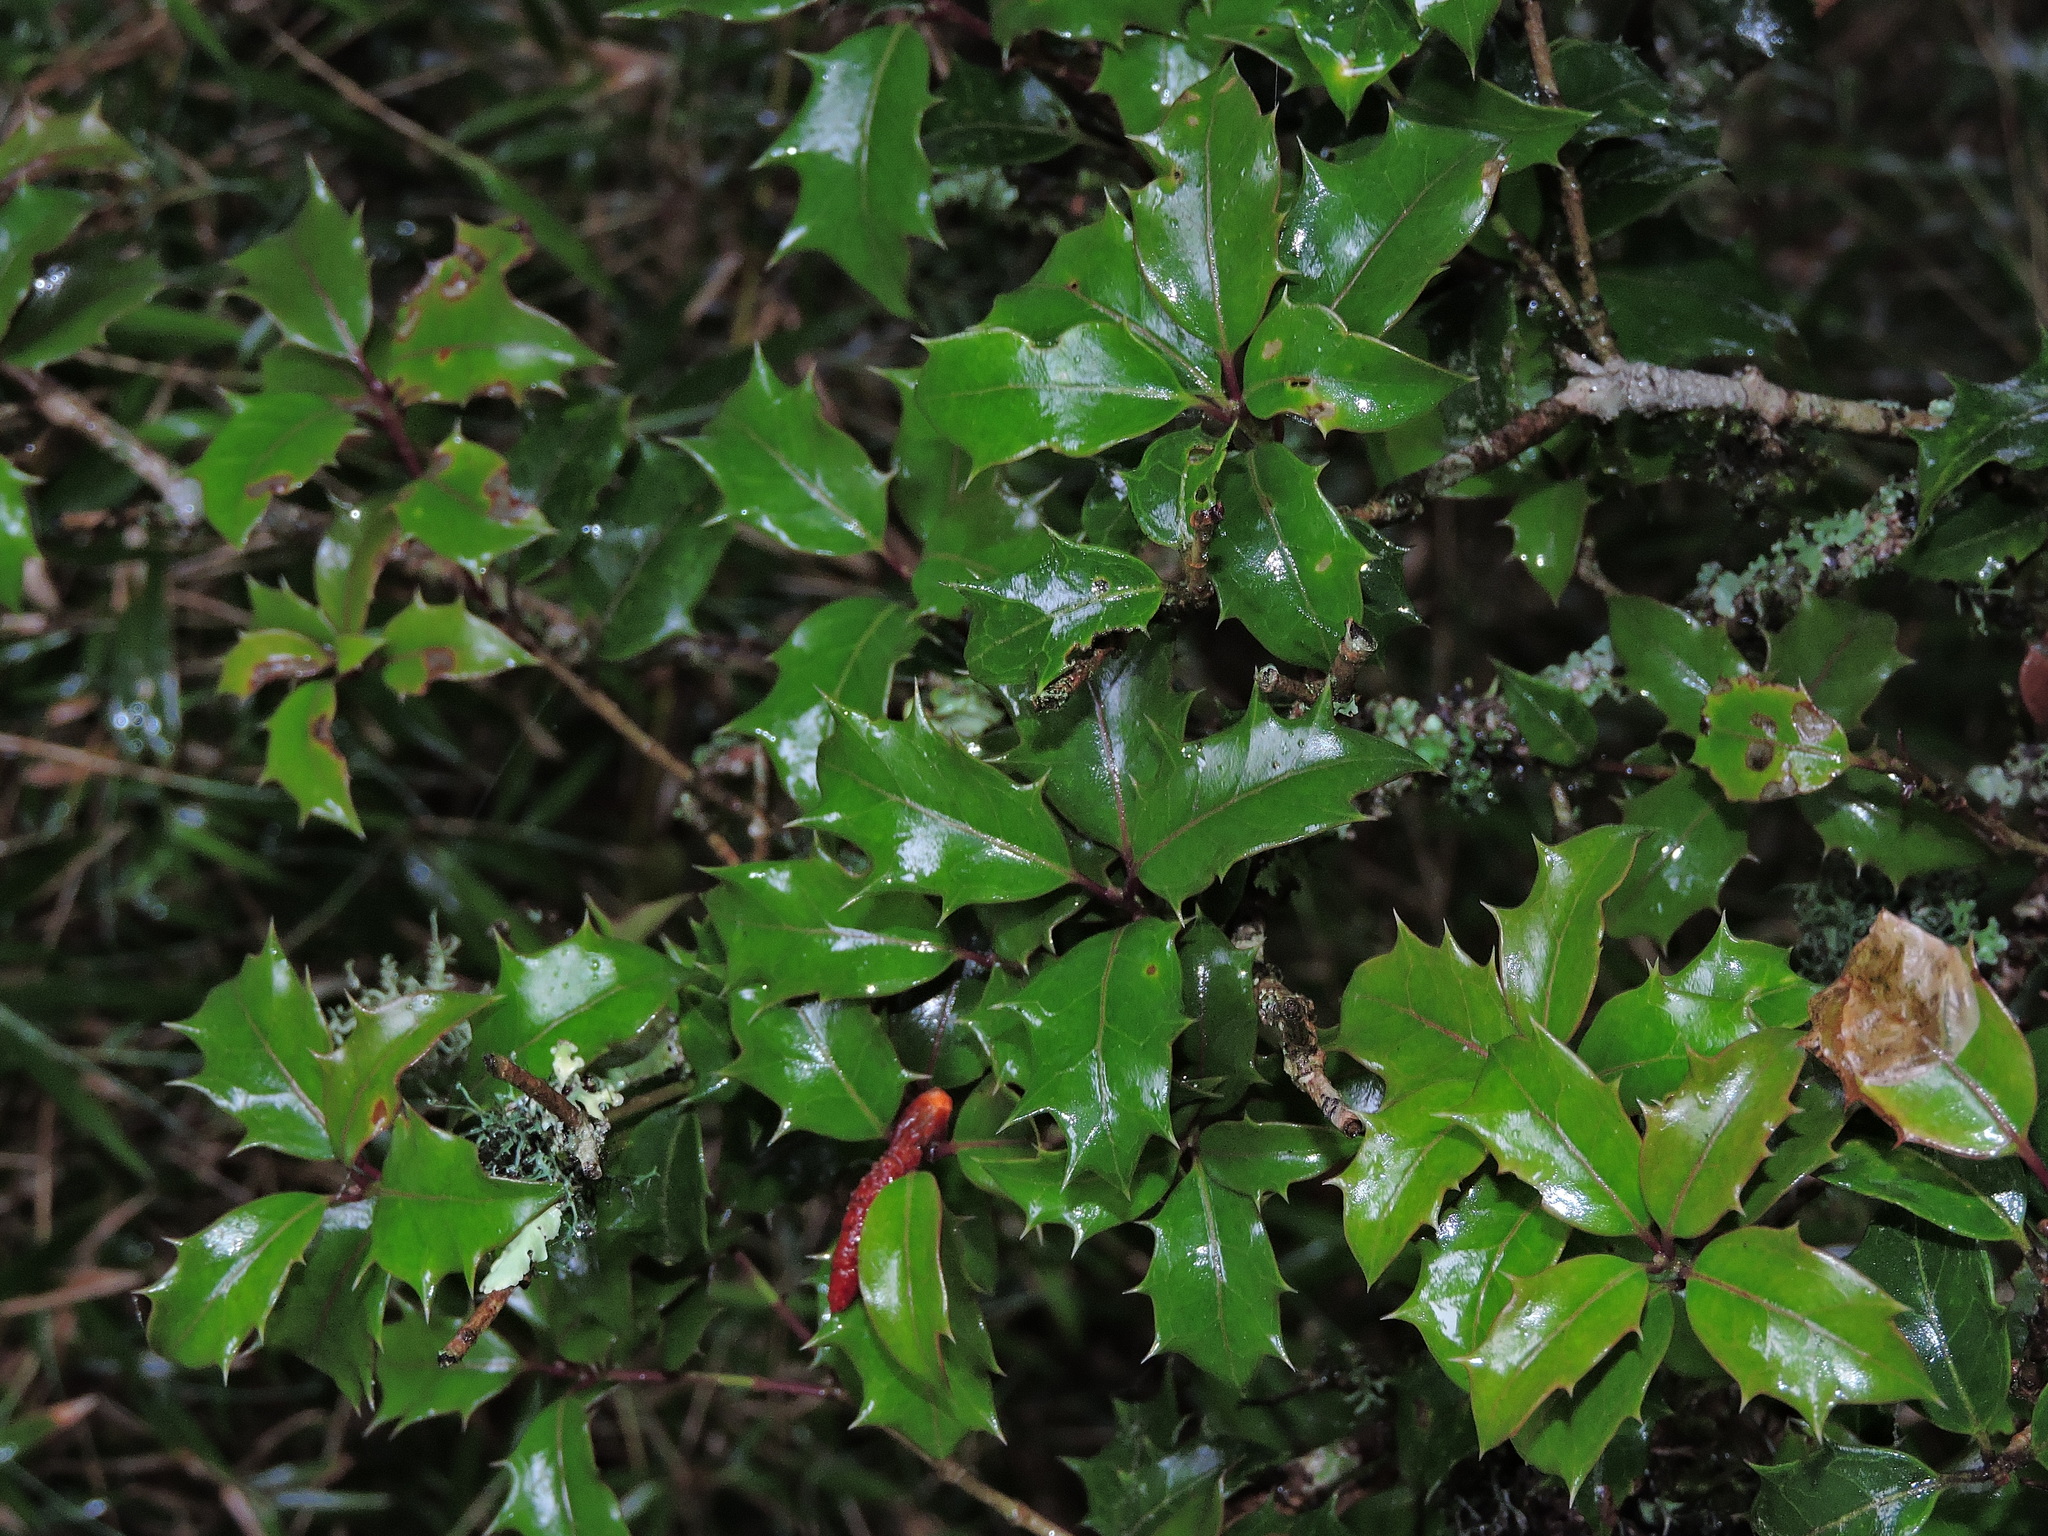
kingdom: Plantae
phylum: Tracheophyta
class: Magnoliopsida
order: Lamiales
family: Oleaceae
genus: Osmanthus
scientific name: Osmanthus heterophyllus
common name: Holly osmanthus
